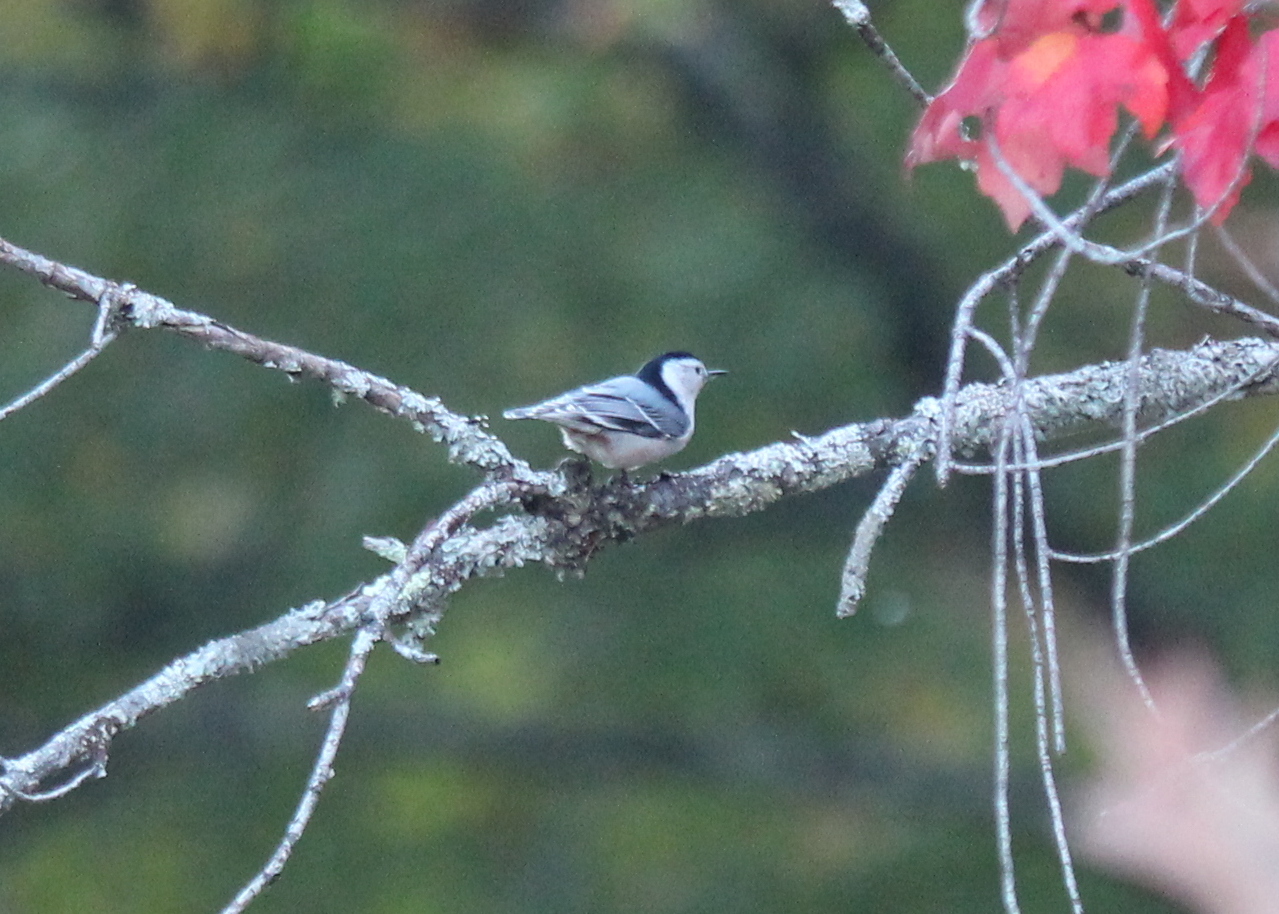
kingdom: Animalia
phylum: Chordata
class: Aves
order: Passeriformes
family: Sittidae
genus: Sitta
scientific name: Sitta carolinensis
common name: White-breasted nuthatch
